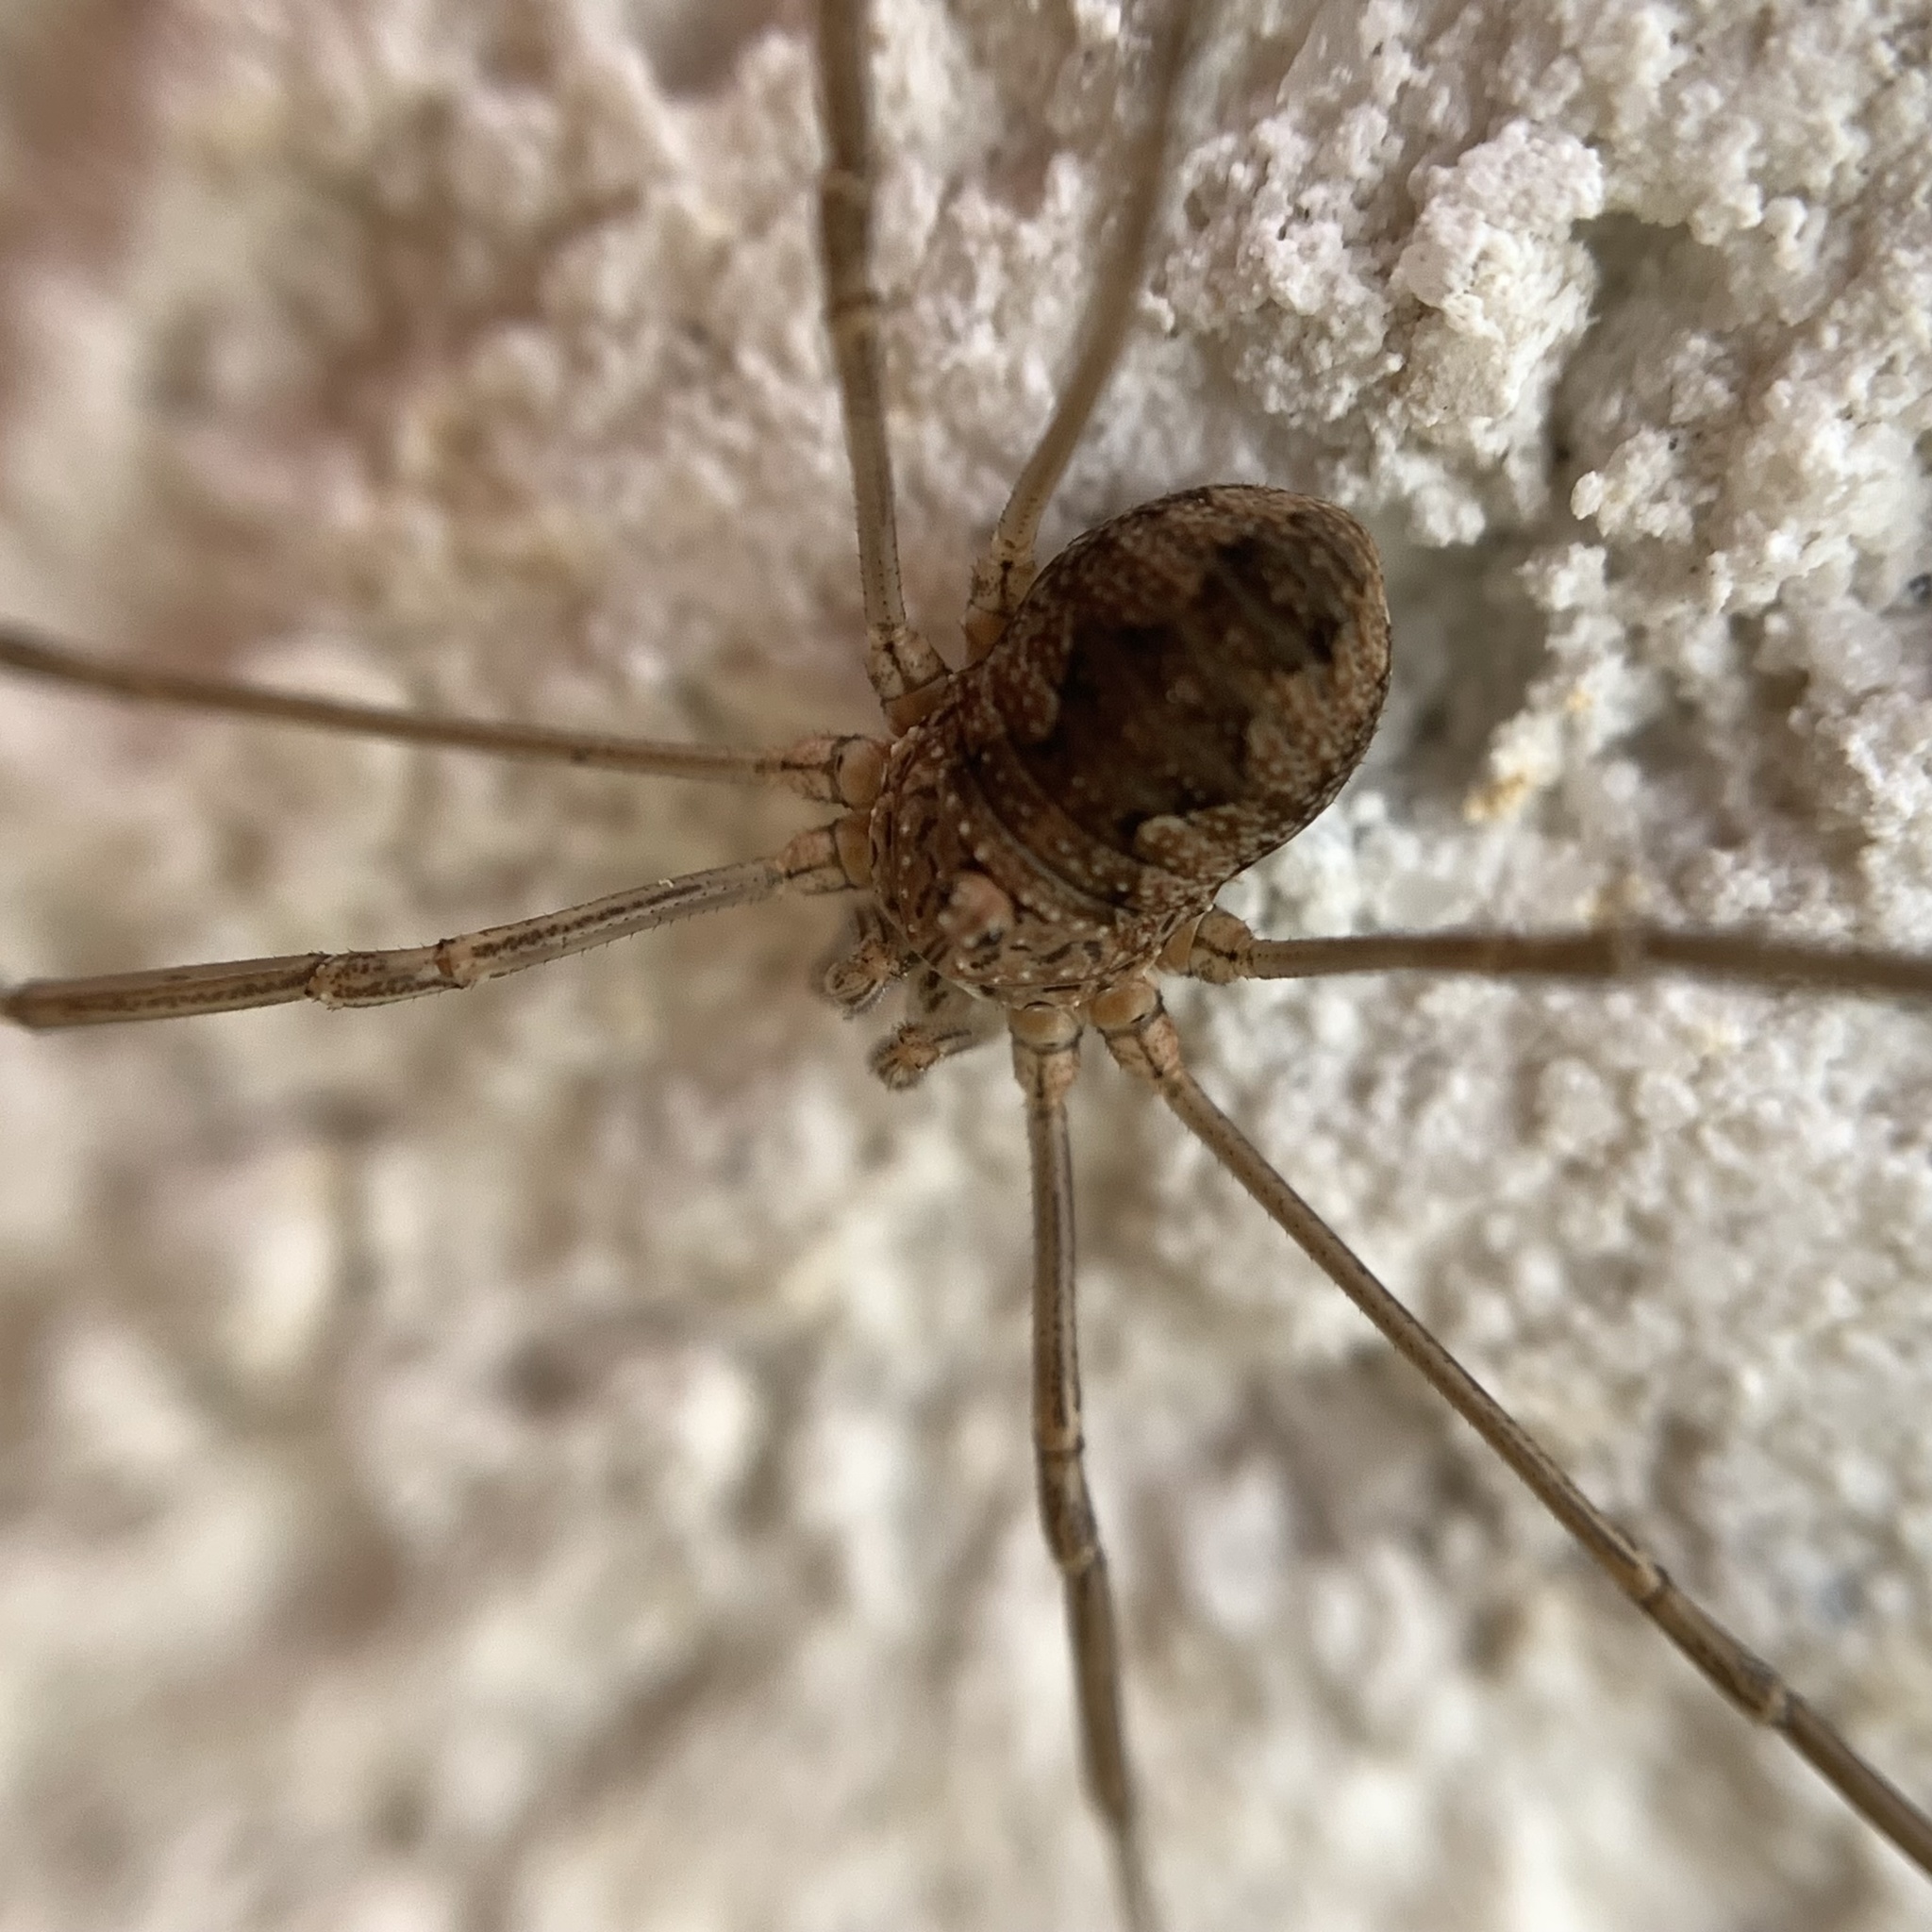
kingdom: Animalia
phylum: Arthropoda
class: Arachnida
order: Opiliones
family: Phalangiidae
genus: Phalangium
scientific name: Phalangium opilio
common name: Daddy longleg
